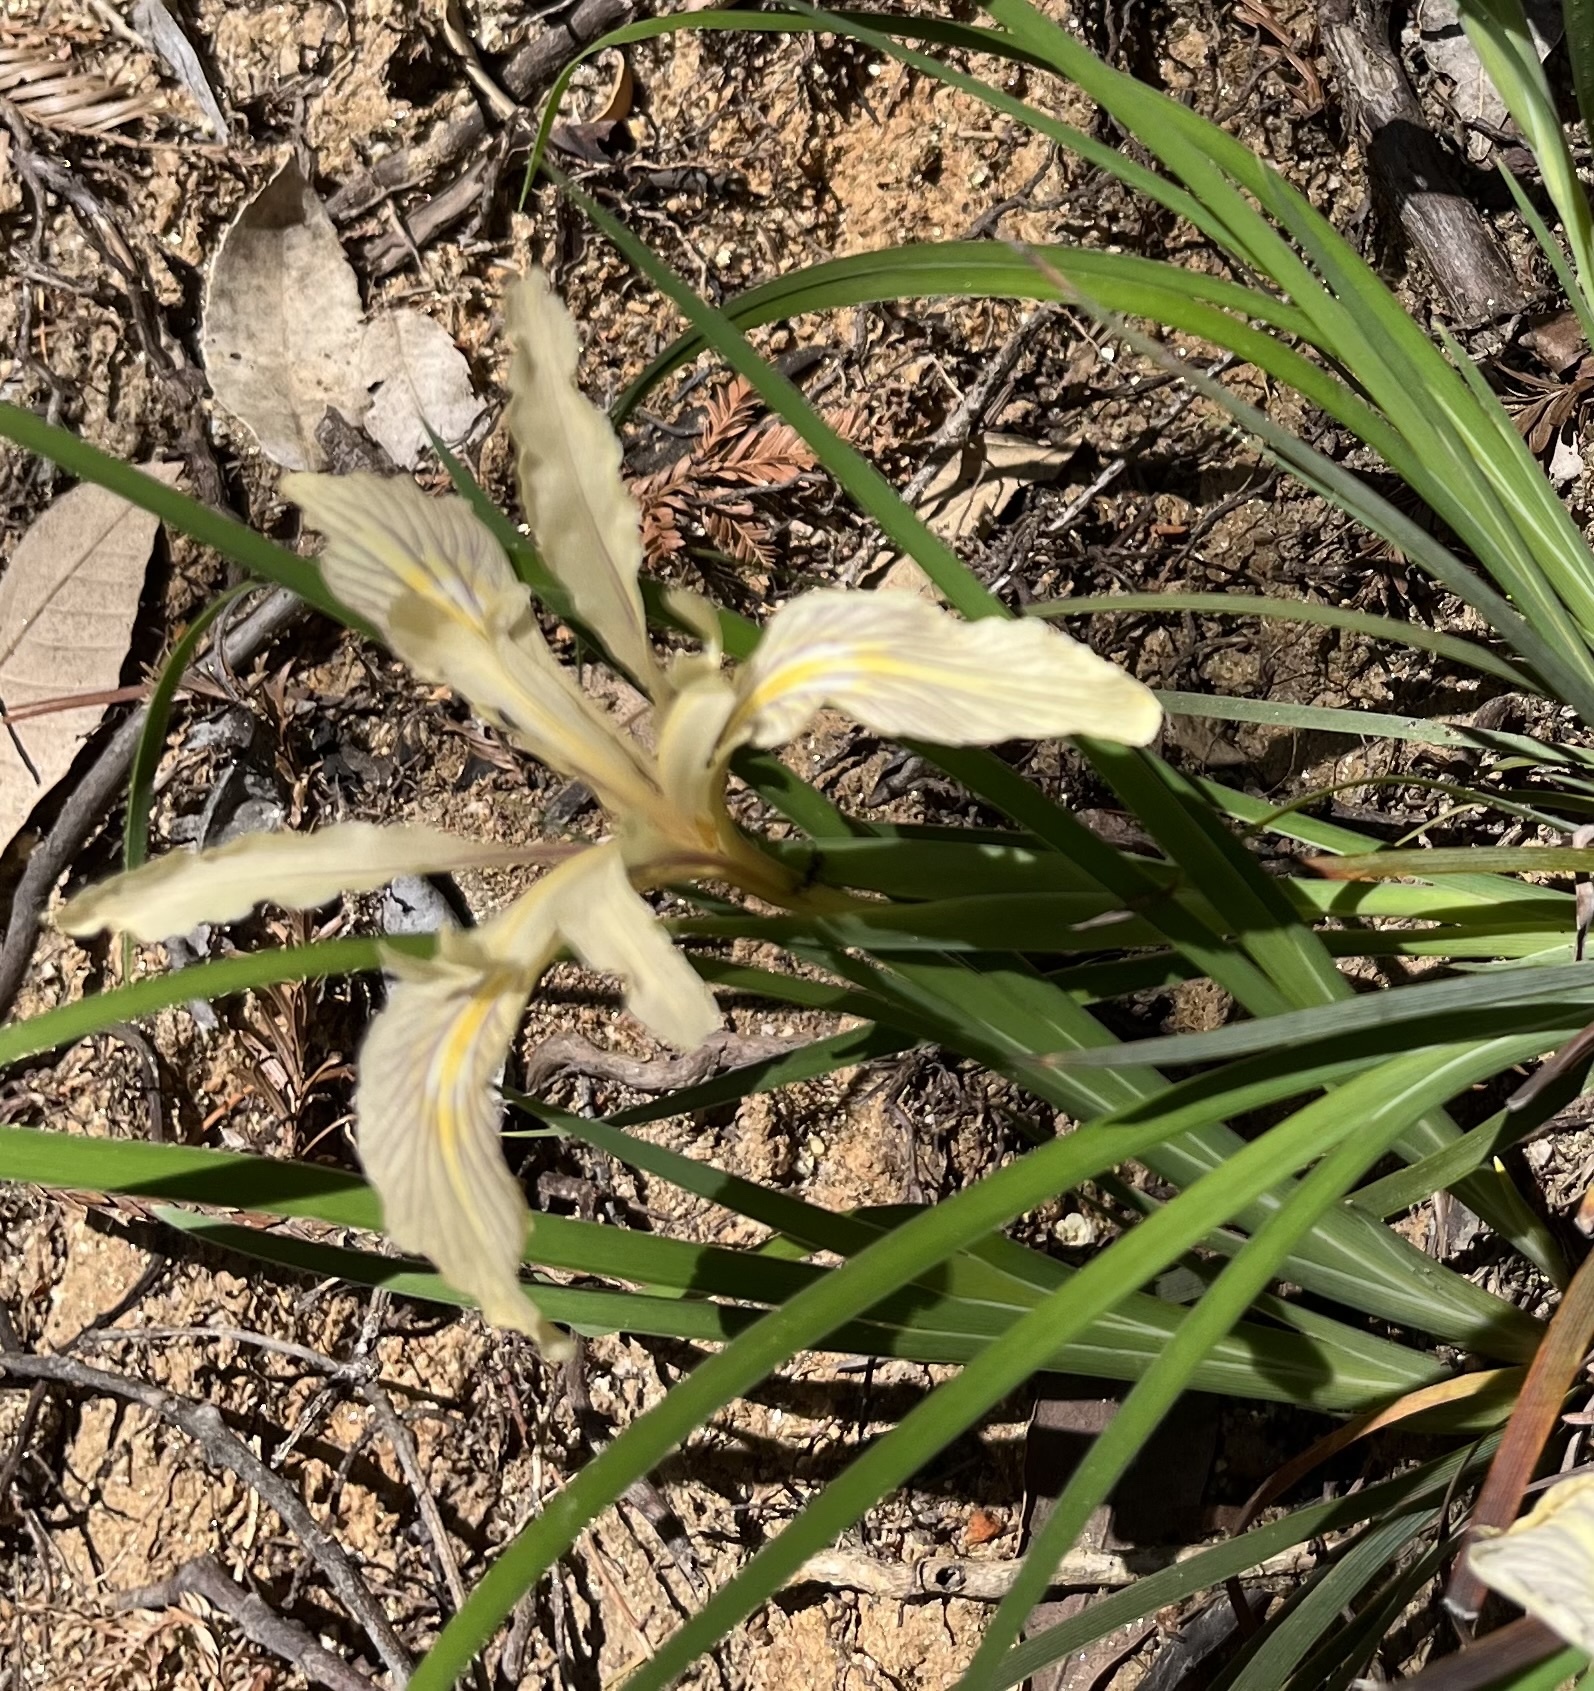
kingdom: Plantae
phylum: Tracheophyta
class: Liliopsida
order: Asparagales
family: Iridaceae
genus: Iris
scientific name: Iris fernaldii
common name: Fernald's iris
